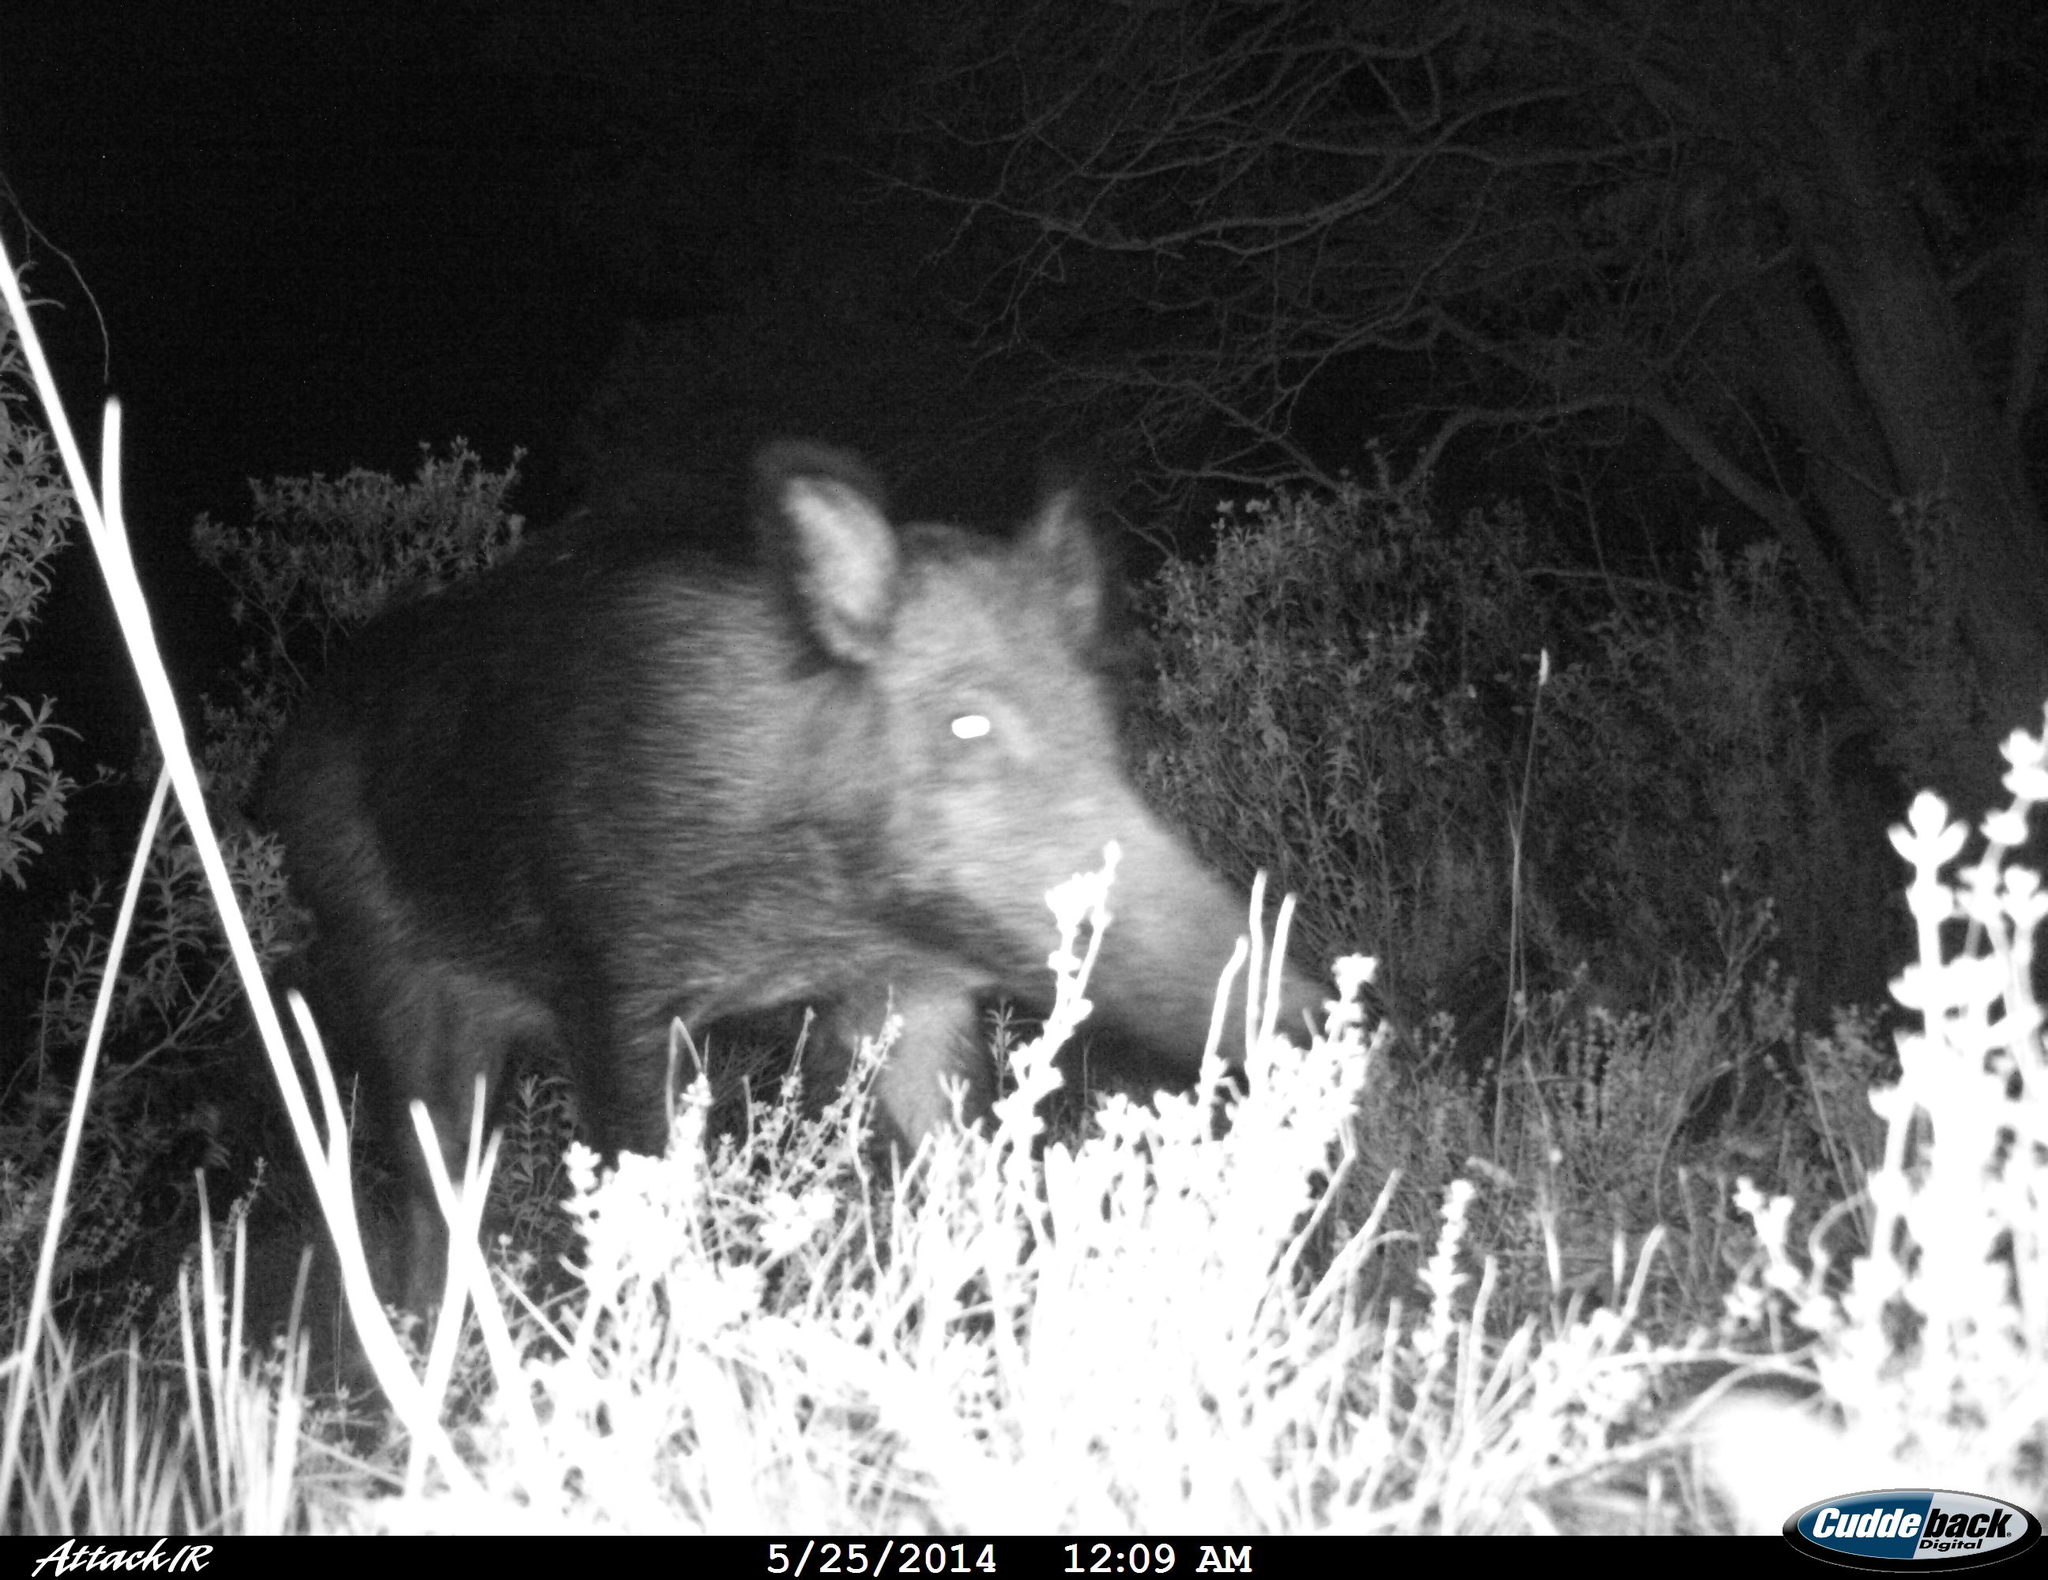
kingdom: Animalia
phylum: Chordata
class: Mammalia
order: Artiodactyla
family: Suidae
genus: Sus
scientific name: Sus scrofa
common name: Wild boar
